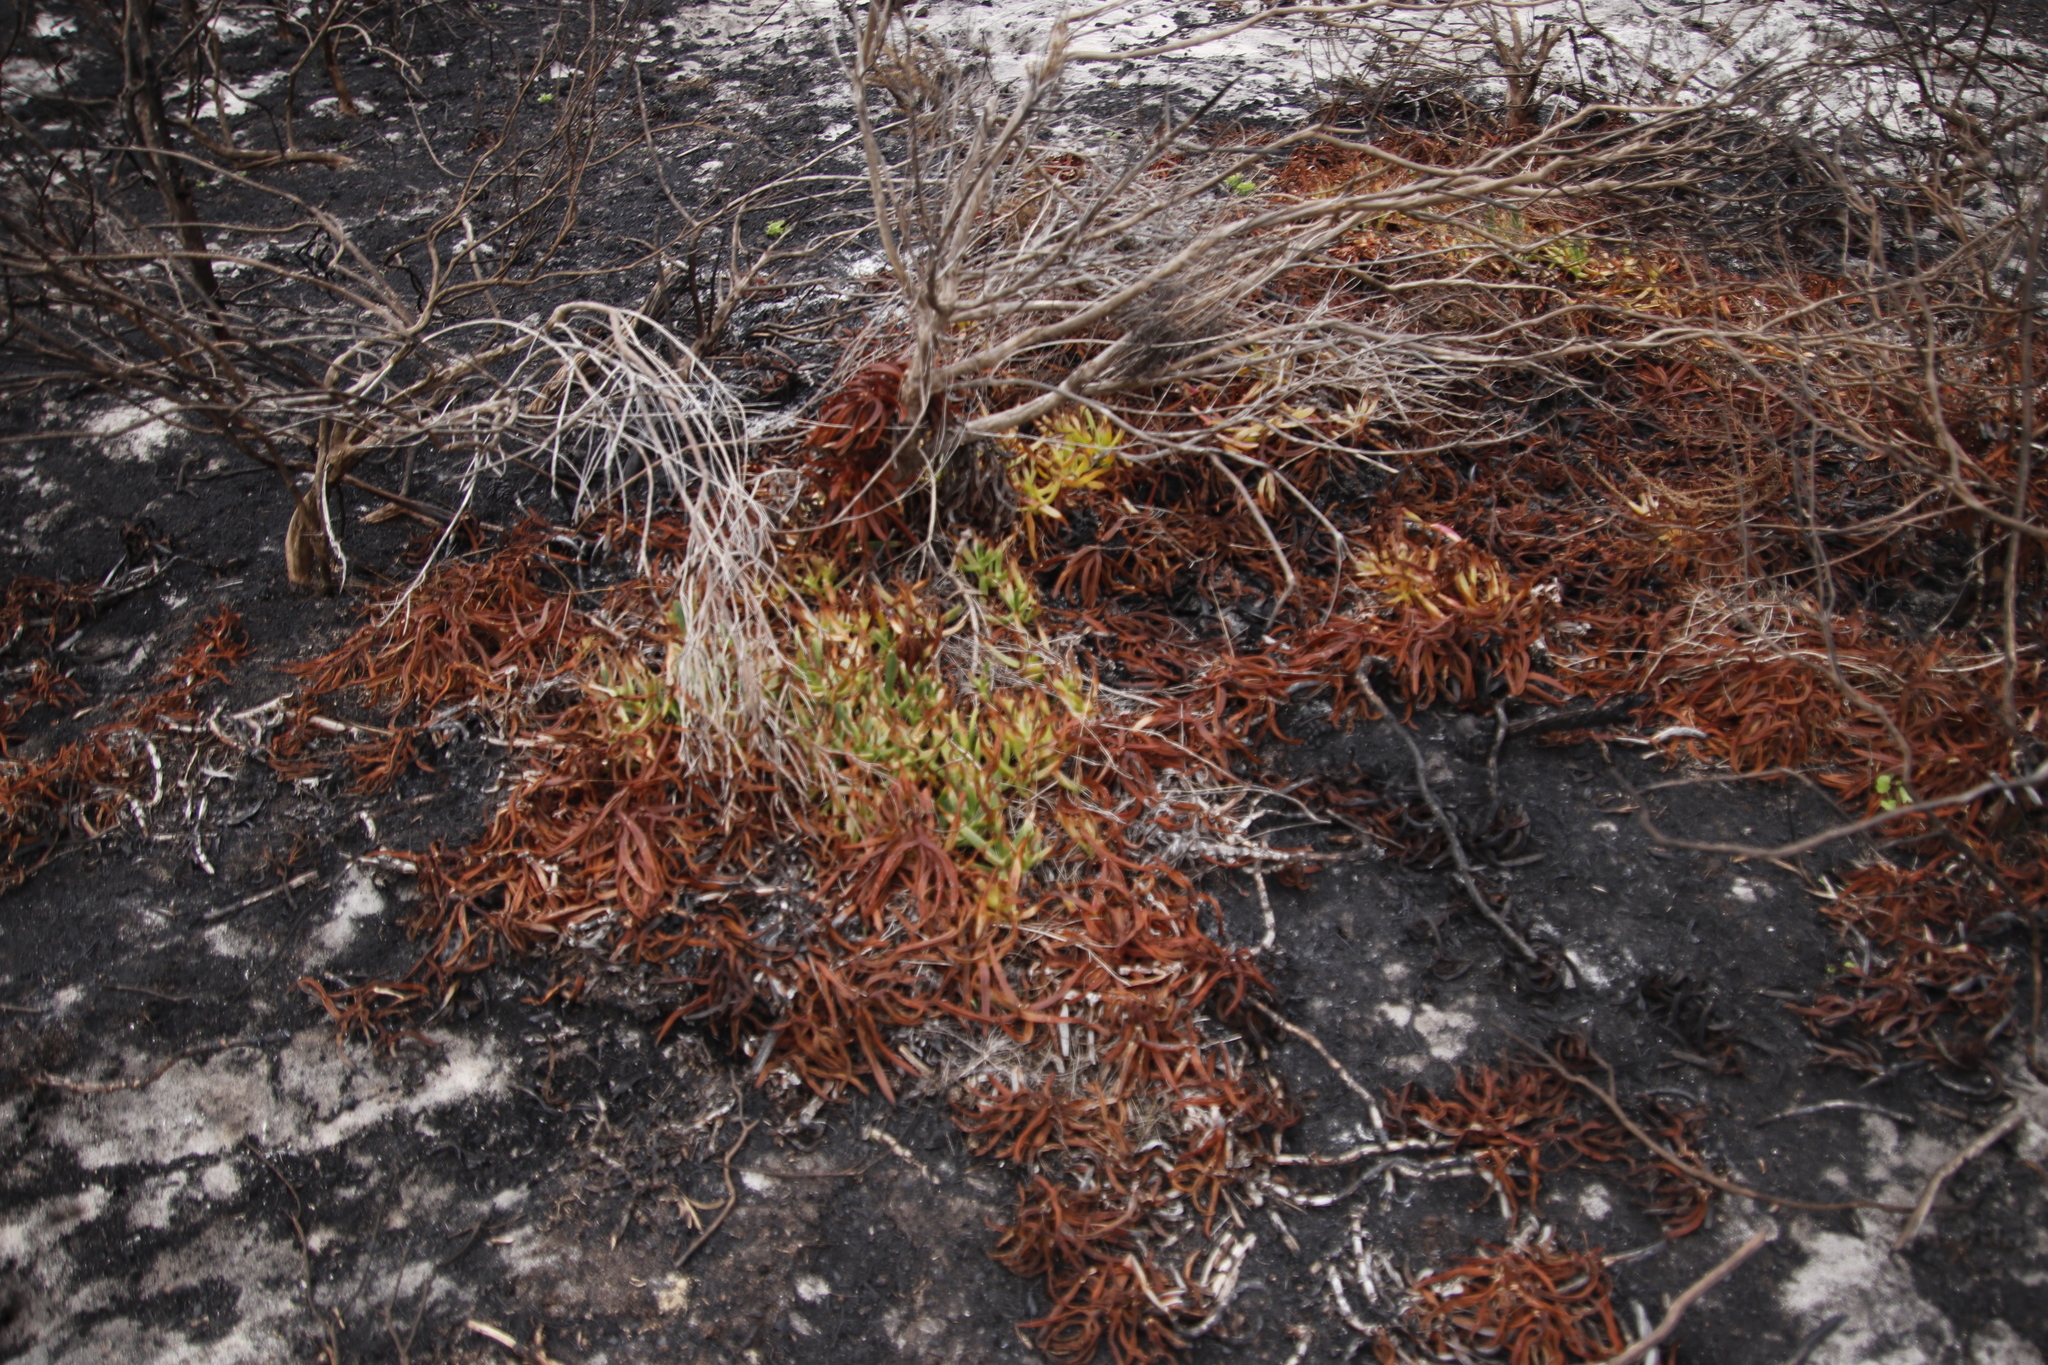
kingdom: Plantae
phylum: Tracheophyta
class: Magnoliopsida
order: Caryophyllales
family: Aizoaceae
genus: Carpobrotus
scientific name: Carpobrotus edulis
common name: Hottentot-fig
